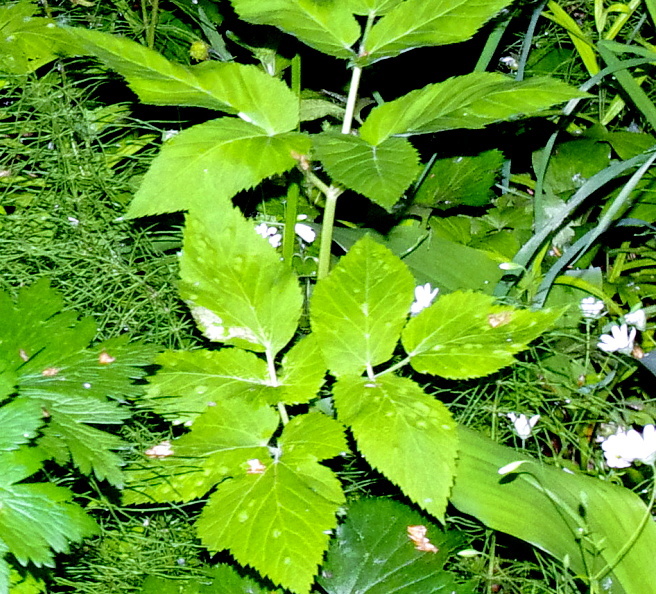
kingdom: Plantae
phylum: Tracheophyta
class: Magnoliopsida
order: Apiales
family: Apiaceae
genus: Aegopodium
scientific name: Aegopodium podagraria
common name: Ground-elder
